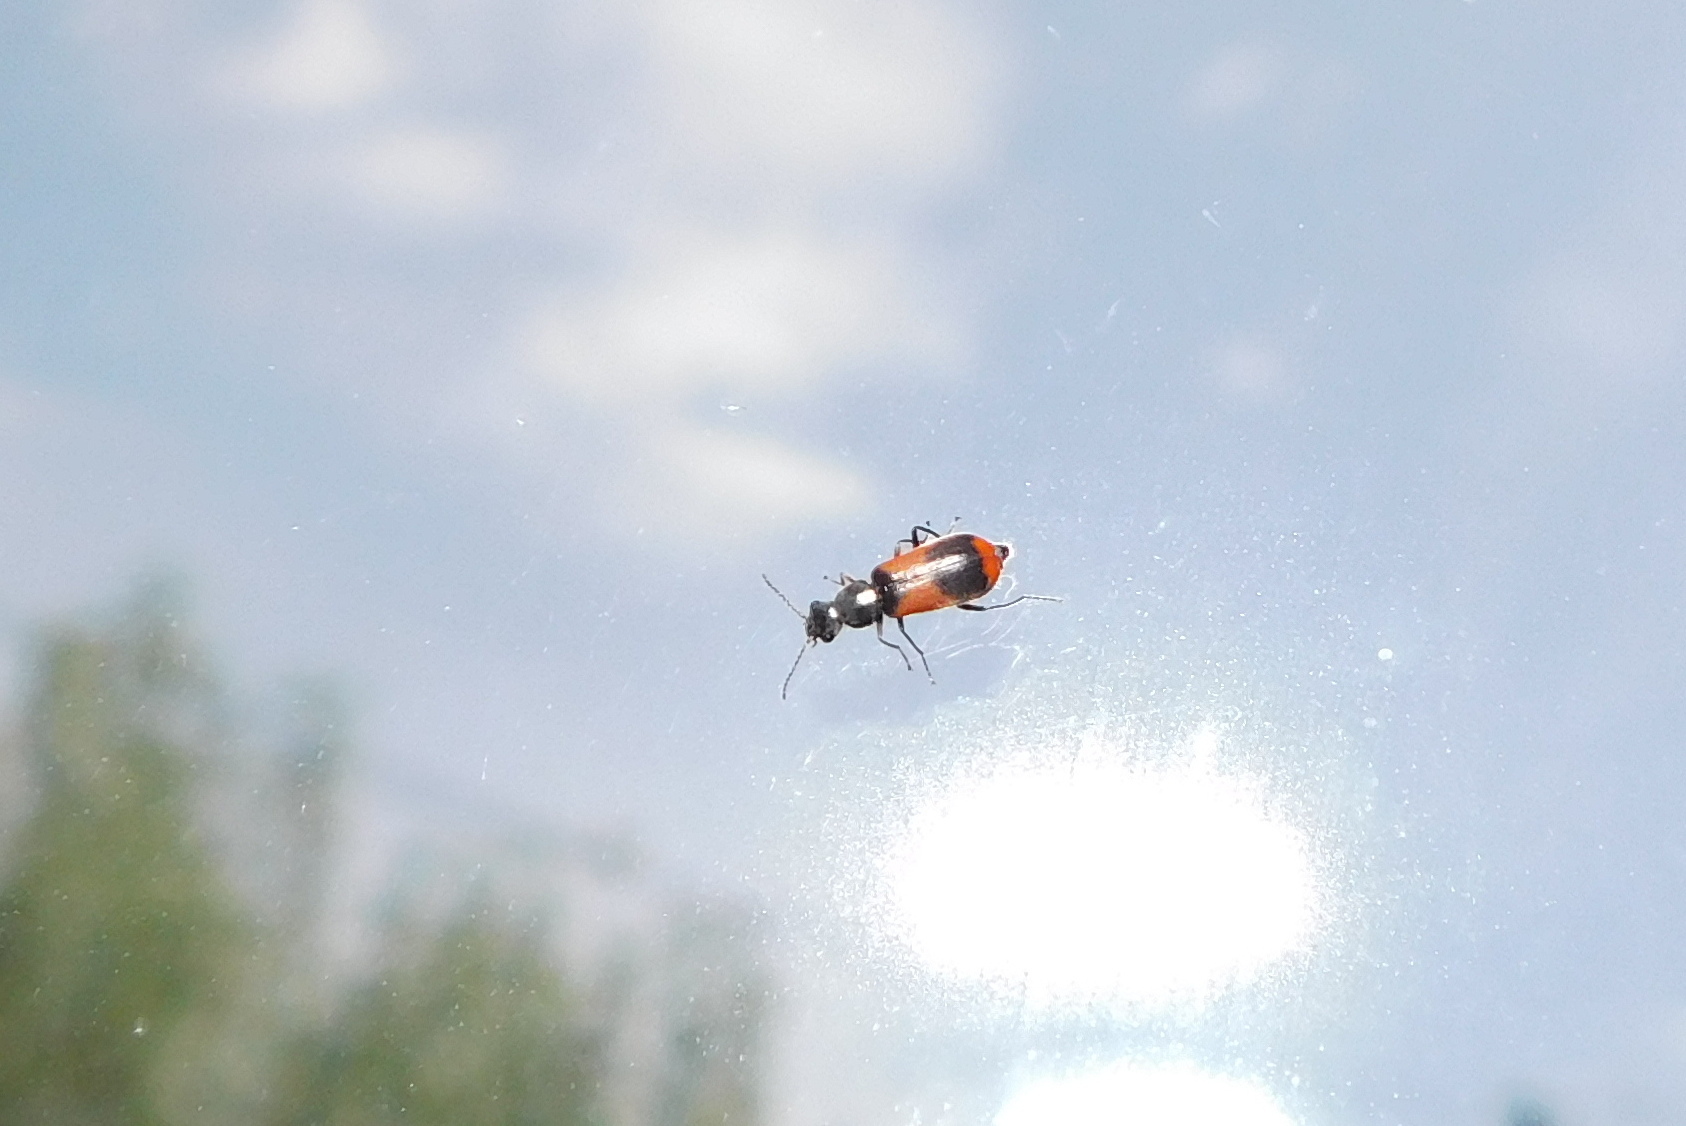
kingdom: Animalia
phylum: Arthropoda
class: Insecta
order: Coleoptera
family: Melyridae
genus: Anthocomus
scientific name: Anthocomus equestris
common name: Black-banded soft-winged flower beetle
